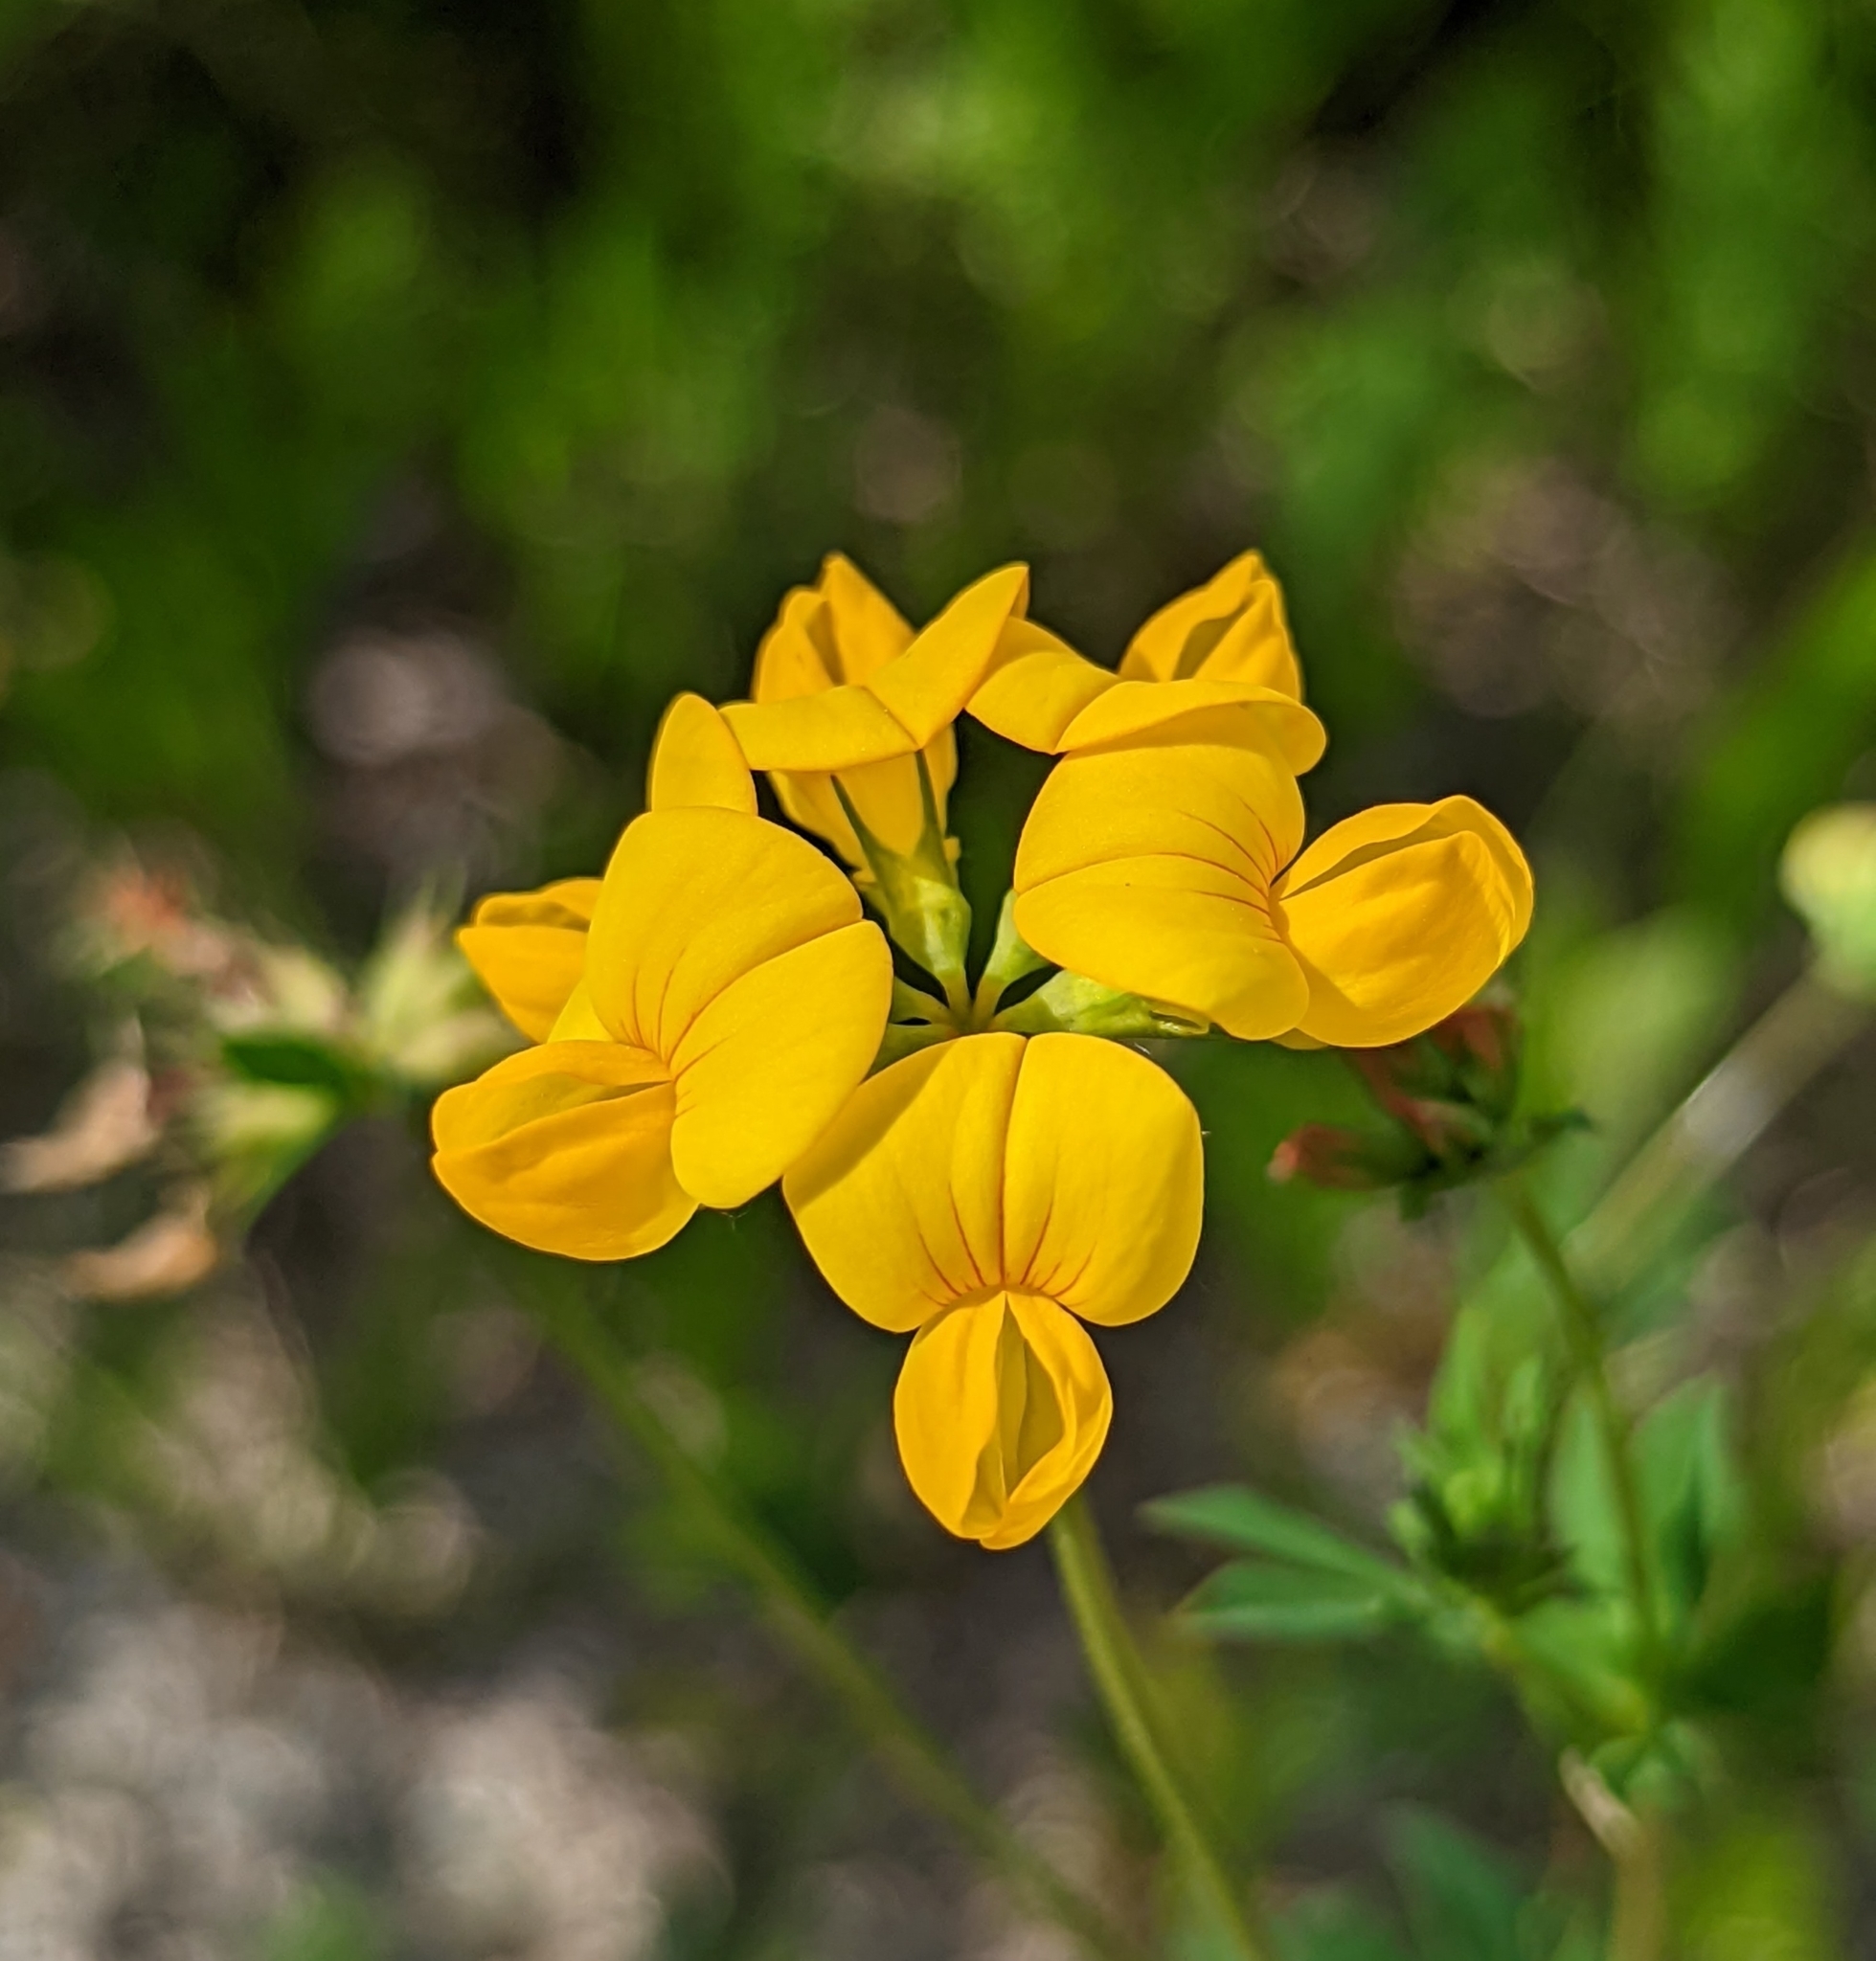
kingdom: Plantae
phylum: Tracheophyta
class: Magnoliopsida
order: Fabales
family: Fabaceae
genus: Lotus
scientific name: Lotus corniculatus
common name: Common bird's-foot-trefoil
